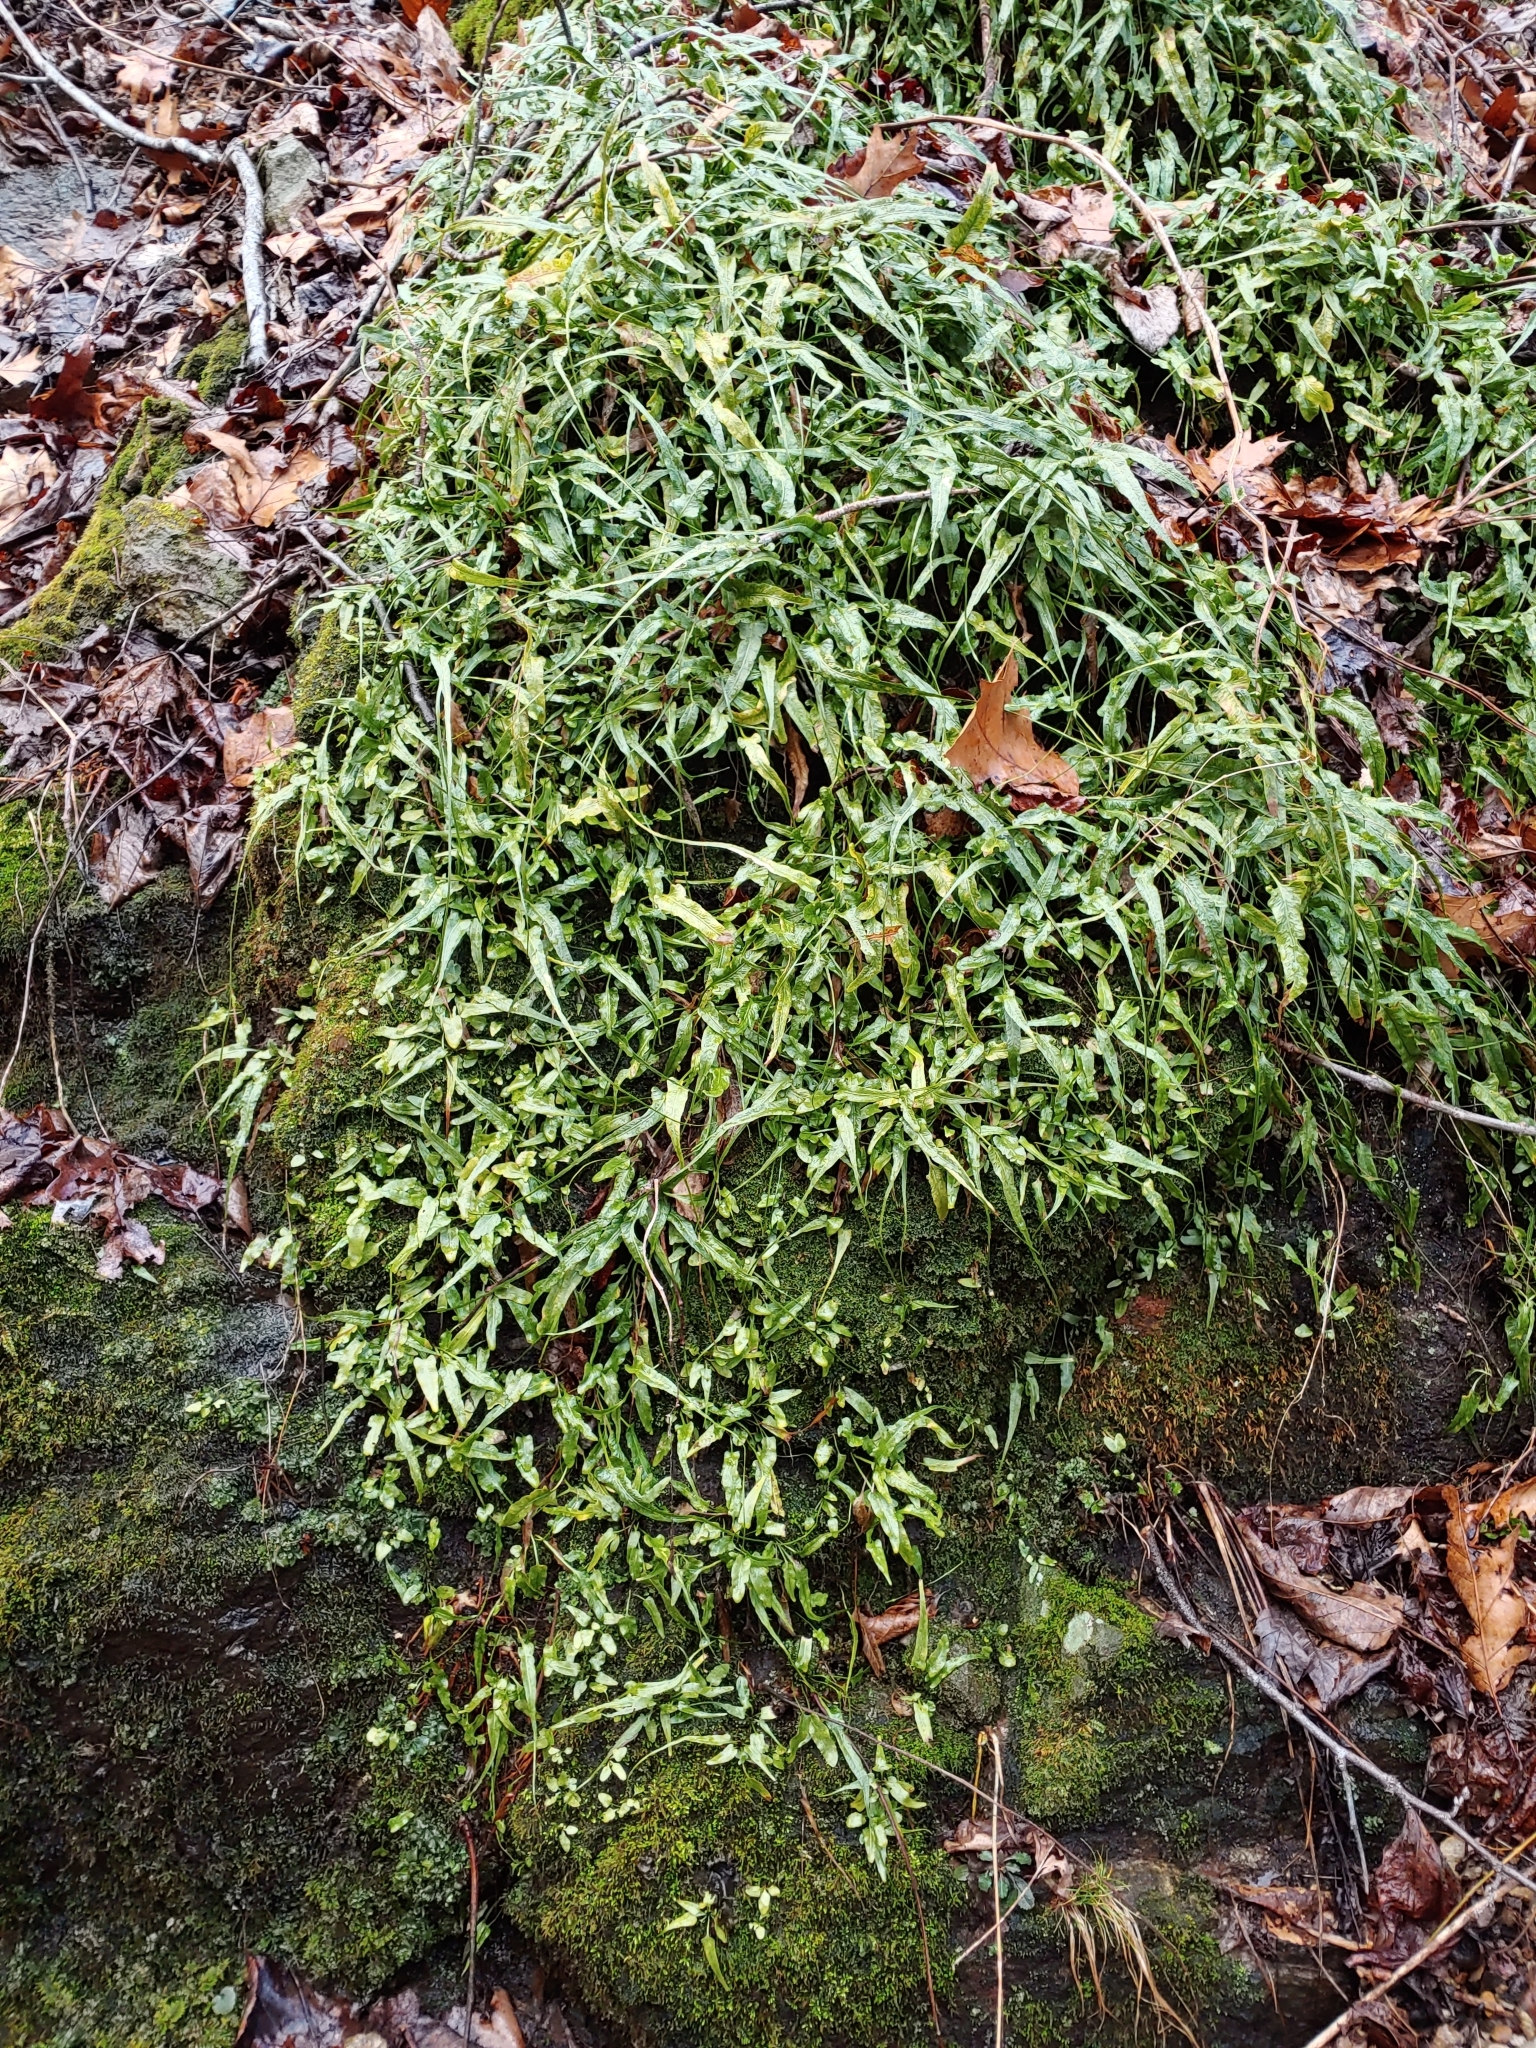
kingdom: Plantae
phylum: Tracheophyta
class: Polypodiopsida
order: Polypodiales
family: Aspleniaceae
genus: Asplenium
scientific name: Asplenium rhizophyllum
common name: Walking fern
